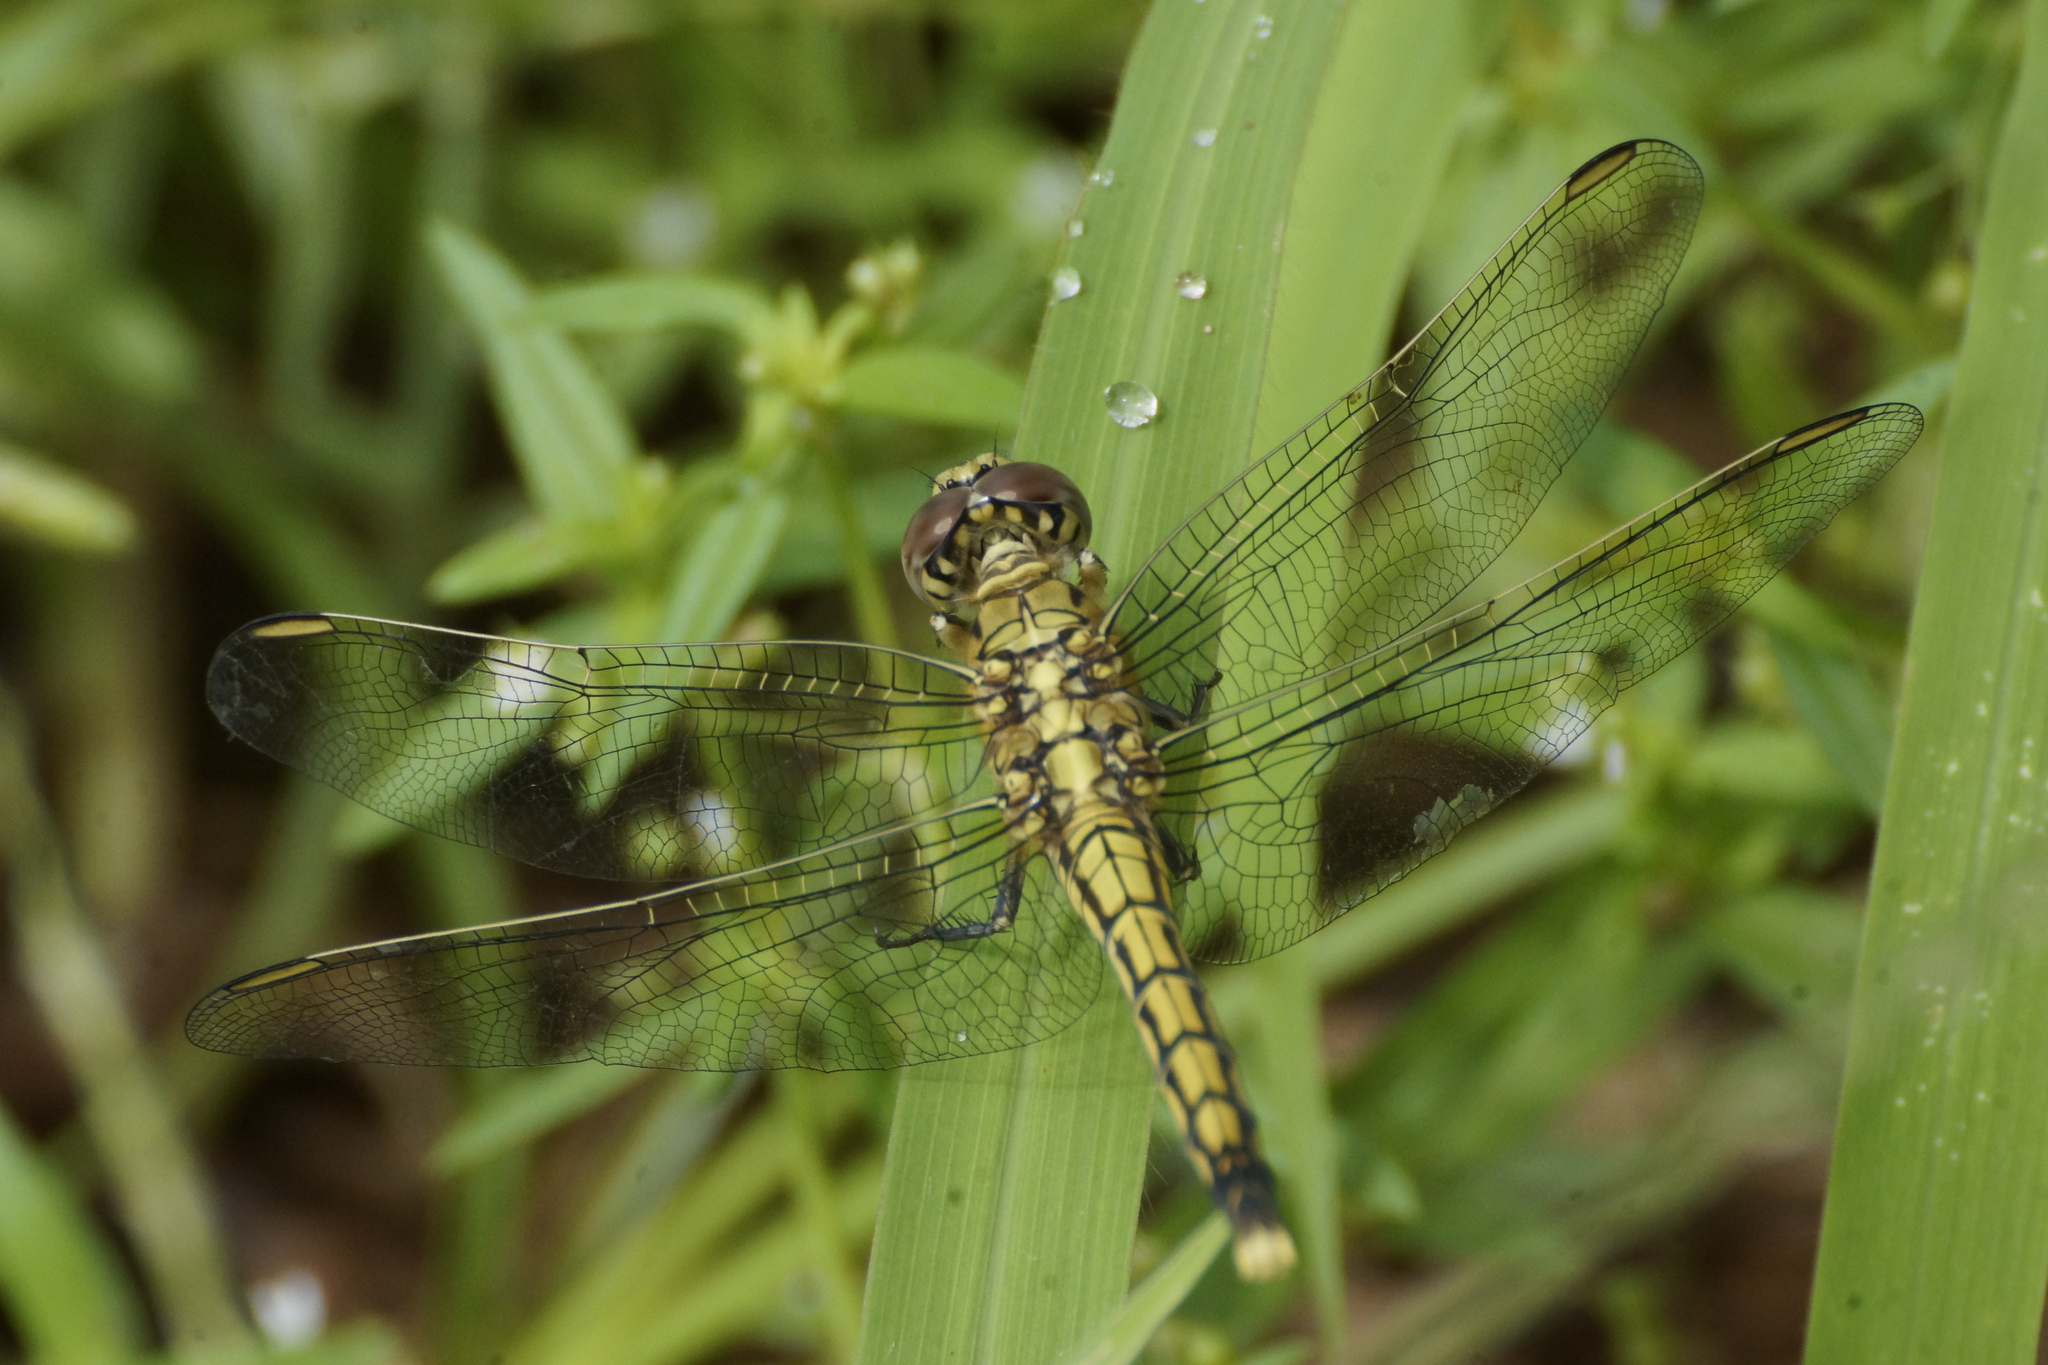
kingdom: Animalia
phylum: Arthropoda
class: Insecta
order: Odonata
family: Libellulidae
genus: Orthetrum
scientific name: Orthetrum caledonicum
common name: Blue skimmer
